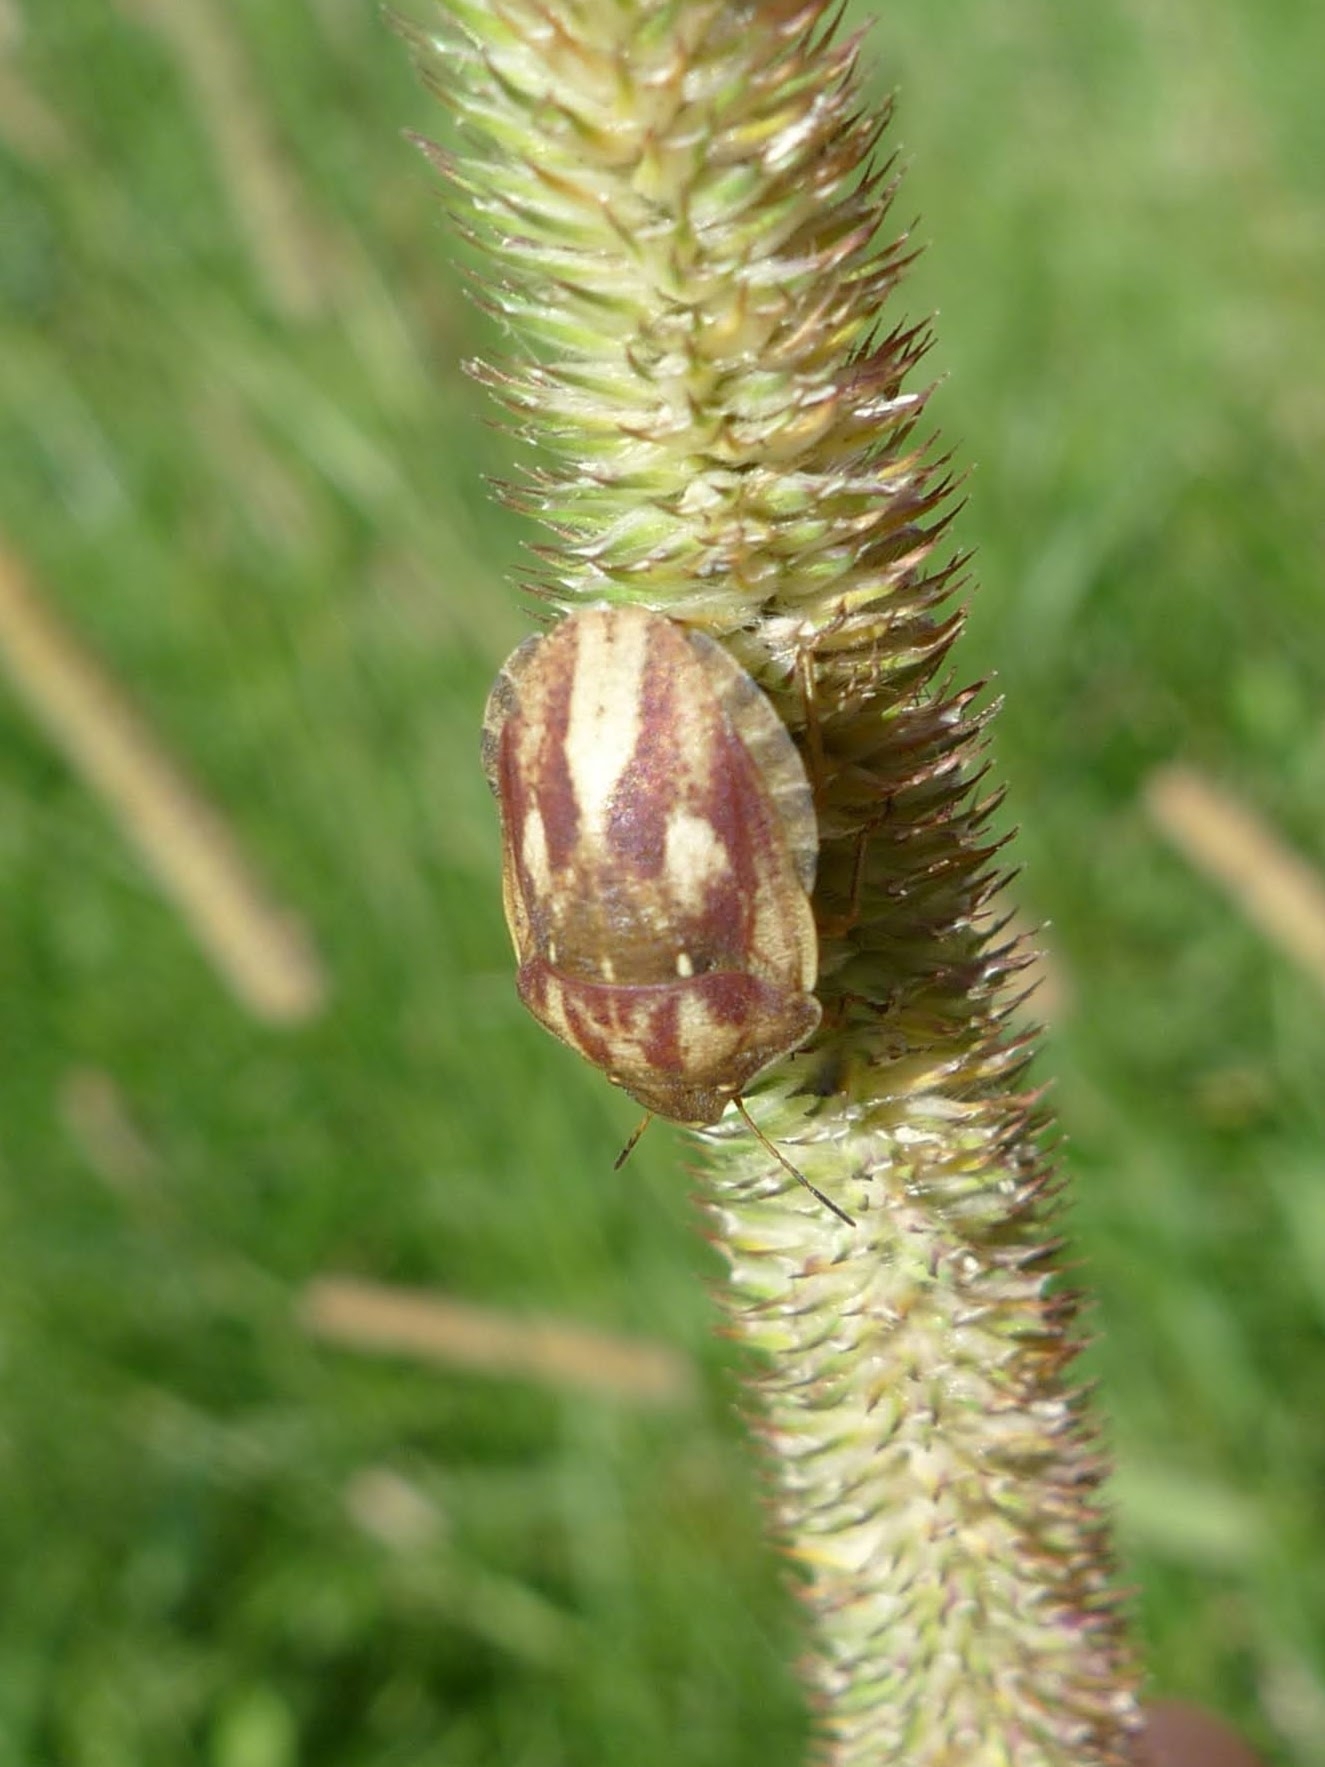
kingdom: Animalia
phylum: Arthropoda
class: Insecta
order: Hemiptera
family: Scutelleridae
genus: Eurygaster
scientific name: Eurygaster testudinaria
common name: Tortoise bug
